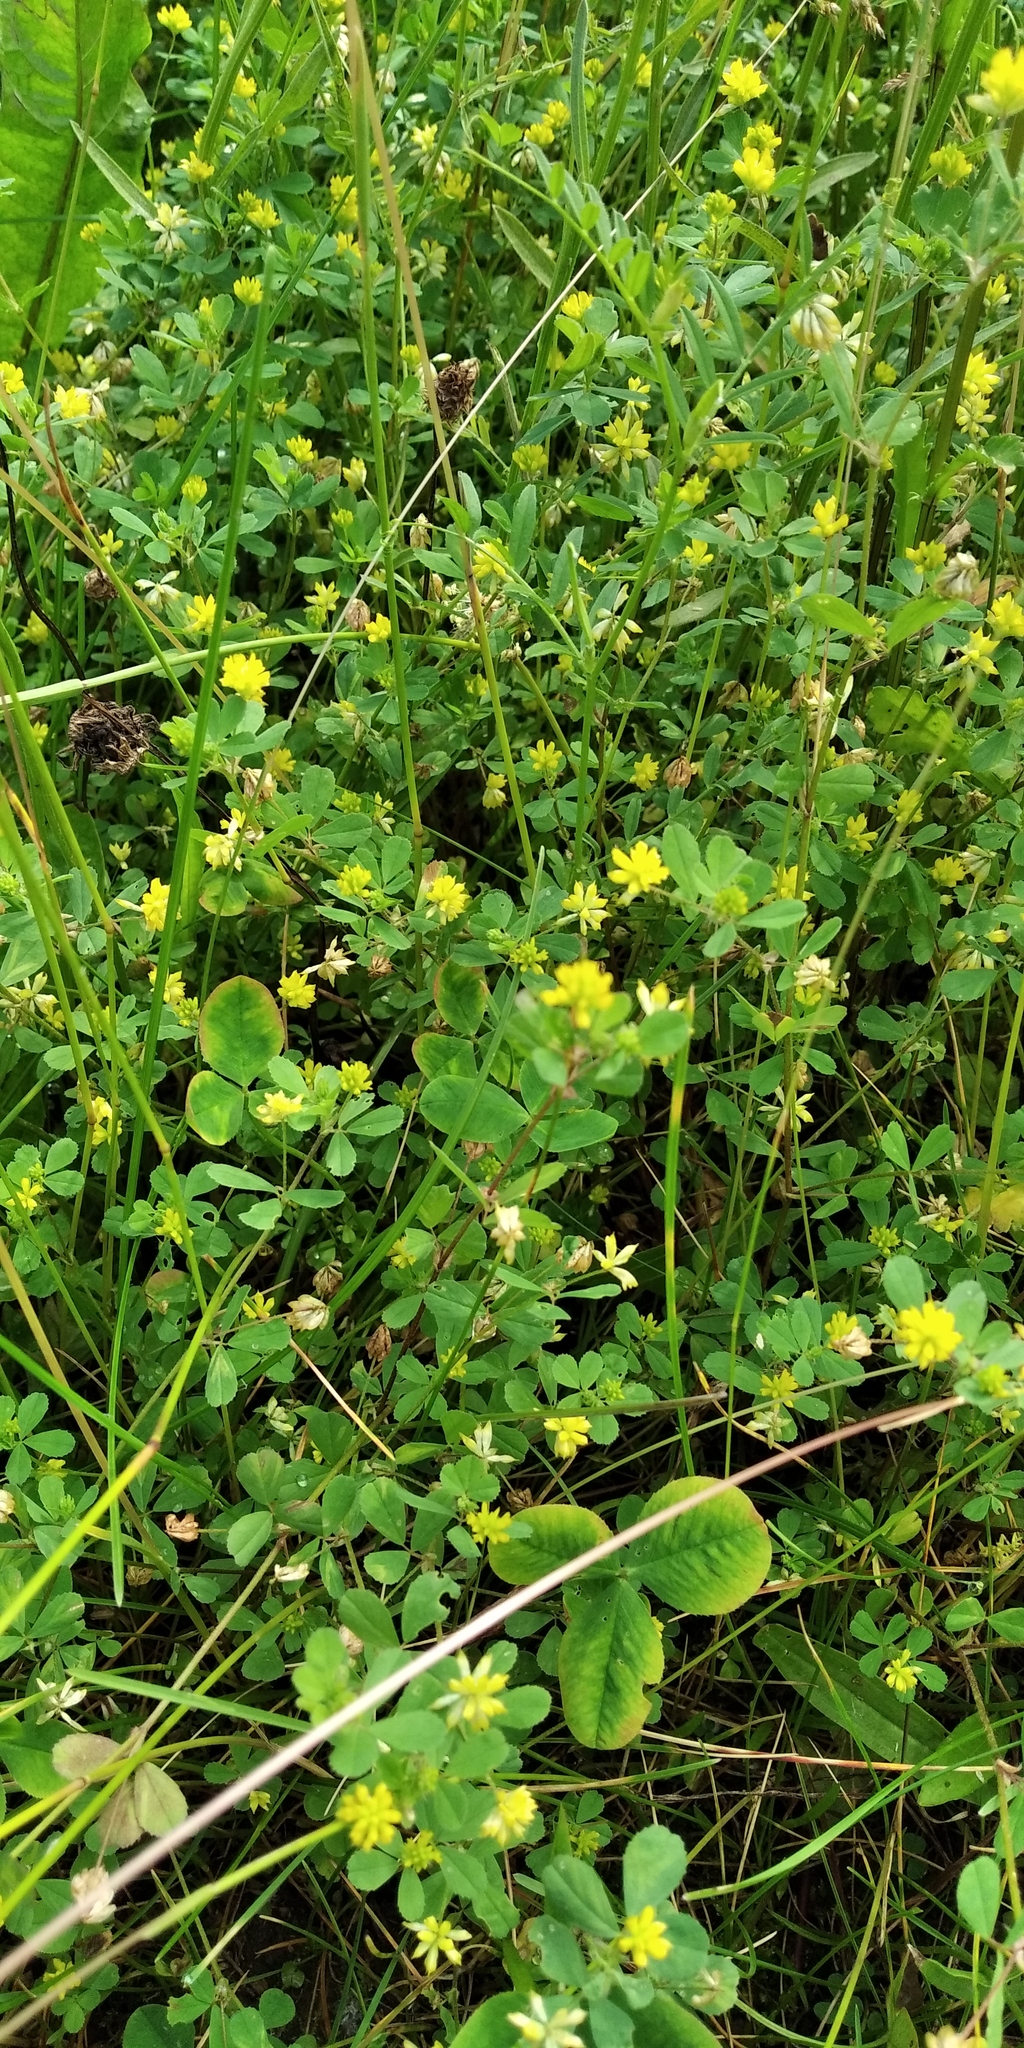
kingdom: Plantae
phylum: Tracheophyta
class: Magnoliopsida
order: Fabales
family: Fabaceae
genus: Trifolium
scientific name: Trifolium dubium
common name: Suckling clover
